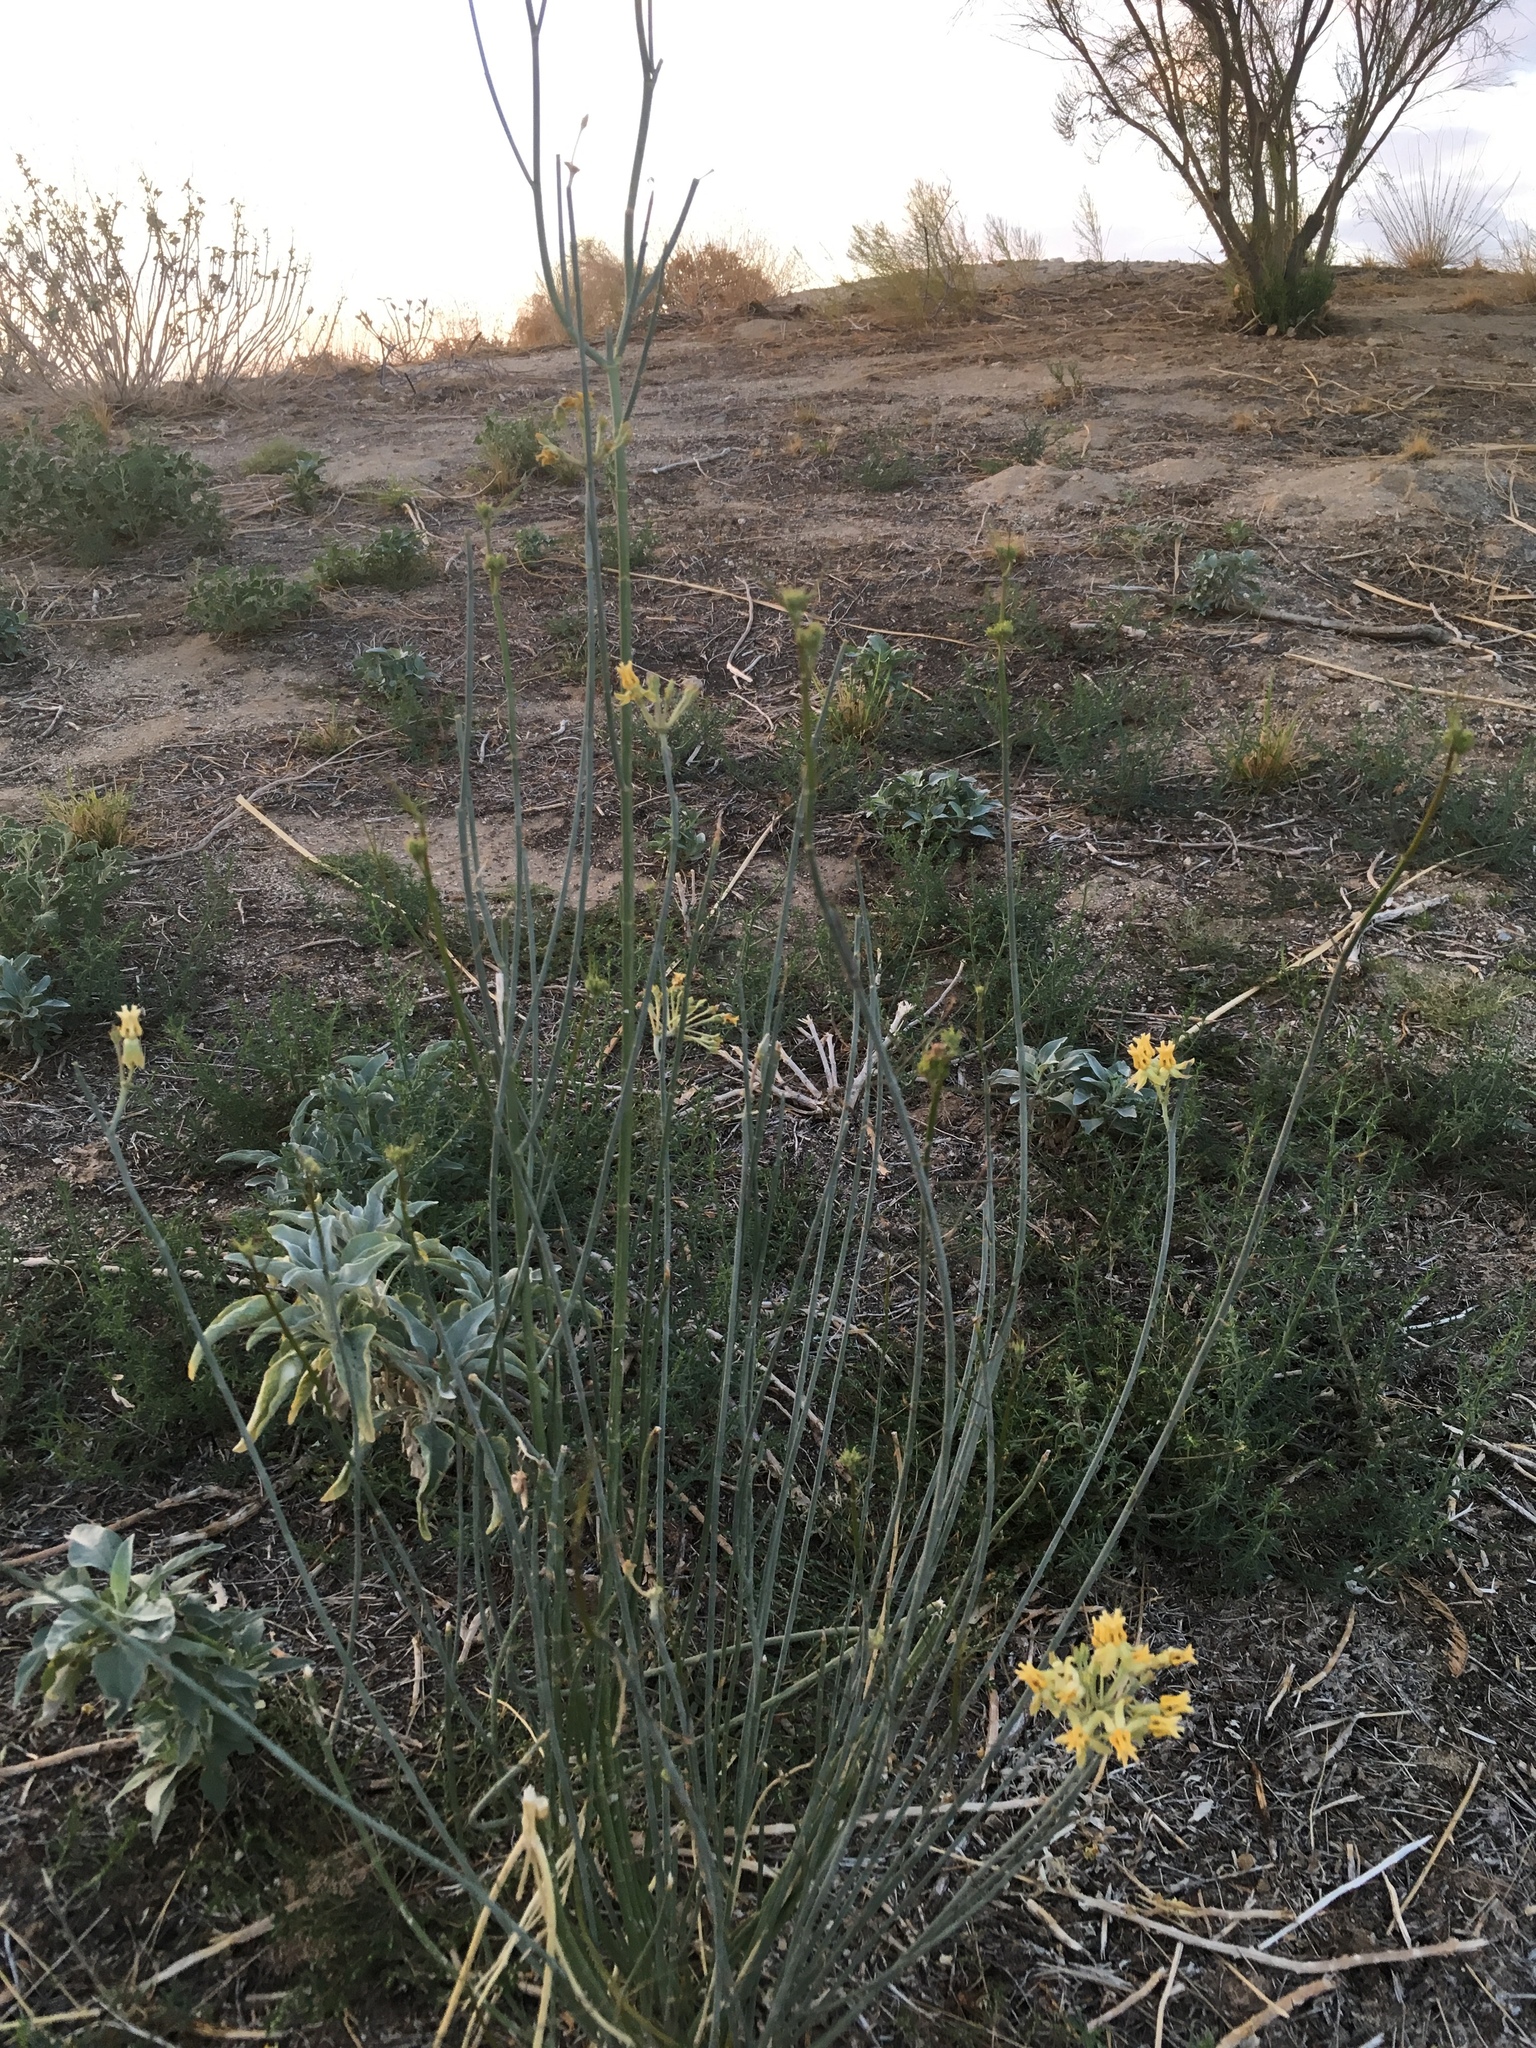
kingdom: Plantae
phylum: Tracheophyta
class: Magnoliopsida
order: Gentianales
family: Apocynaceae
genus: Asclepias
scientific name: Asclepias subulata
